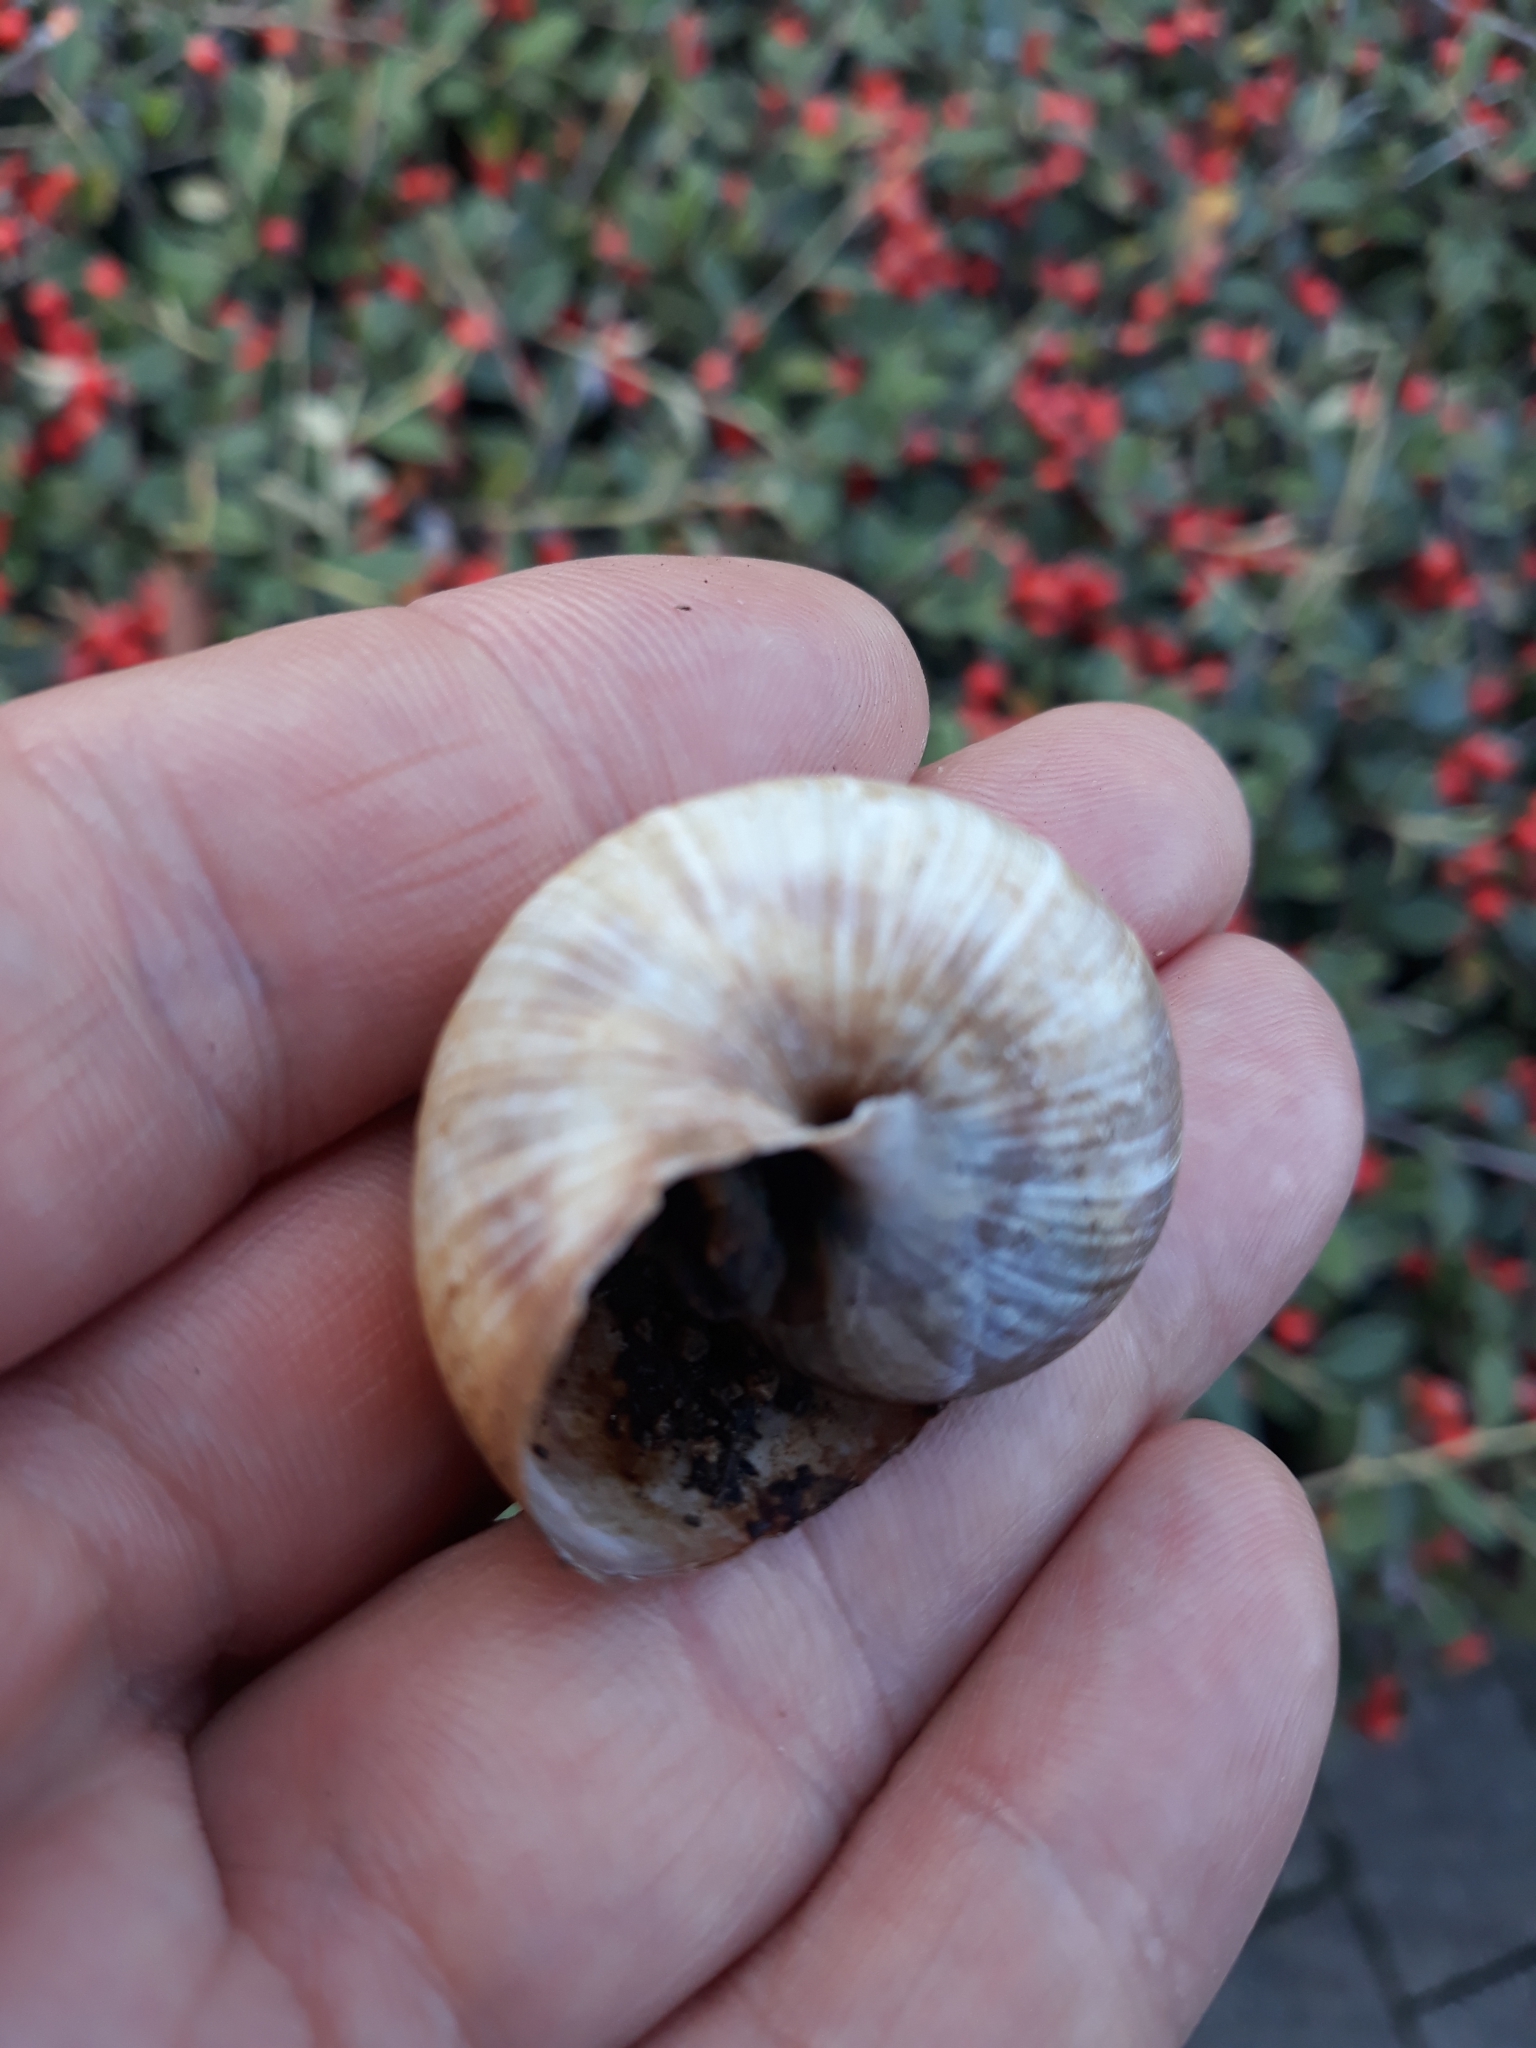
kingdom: Animalia
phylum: Mollusca
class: Gastropoda
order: Stylommatophora
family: Helicidae
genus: Helix
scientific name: Helix pomatia
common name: Roman snail
